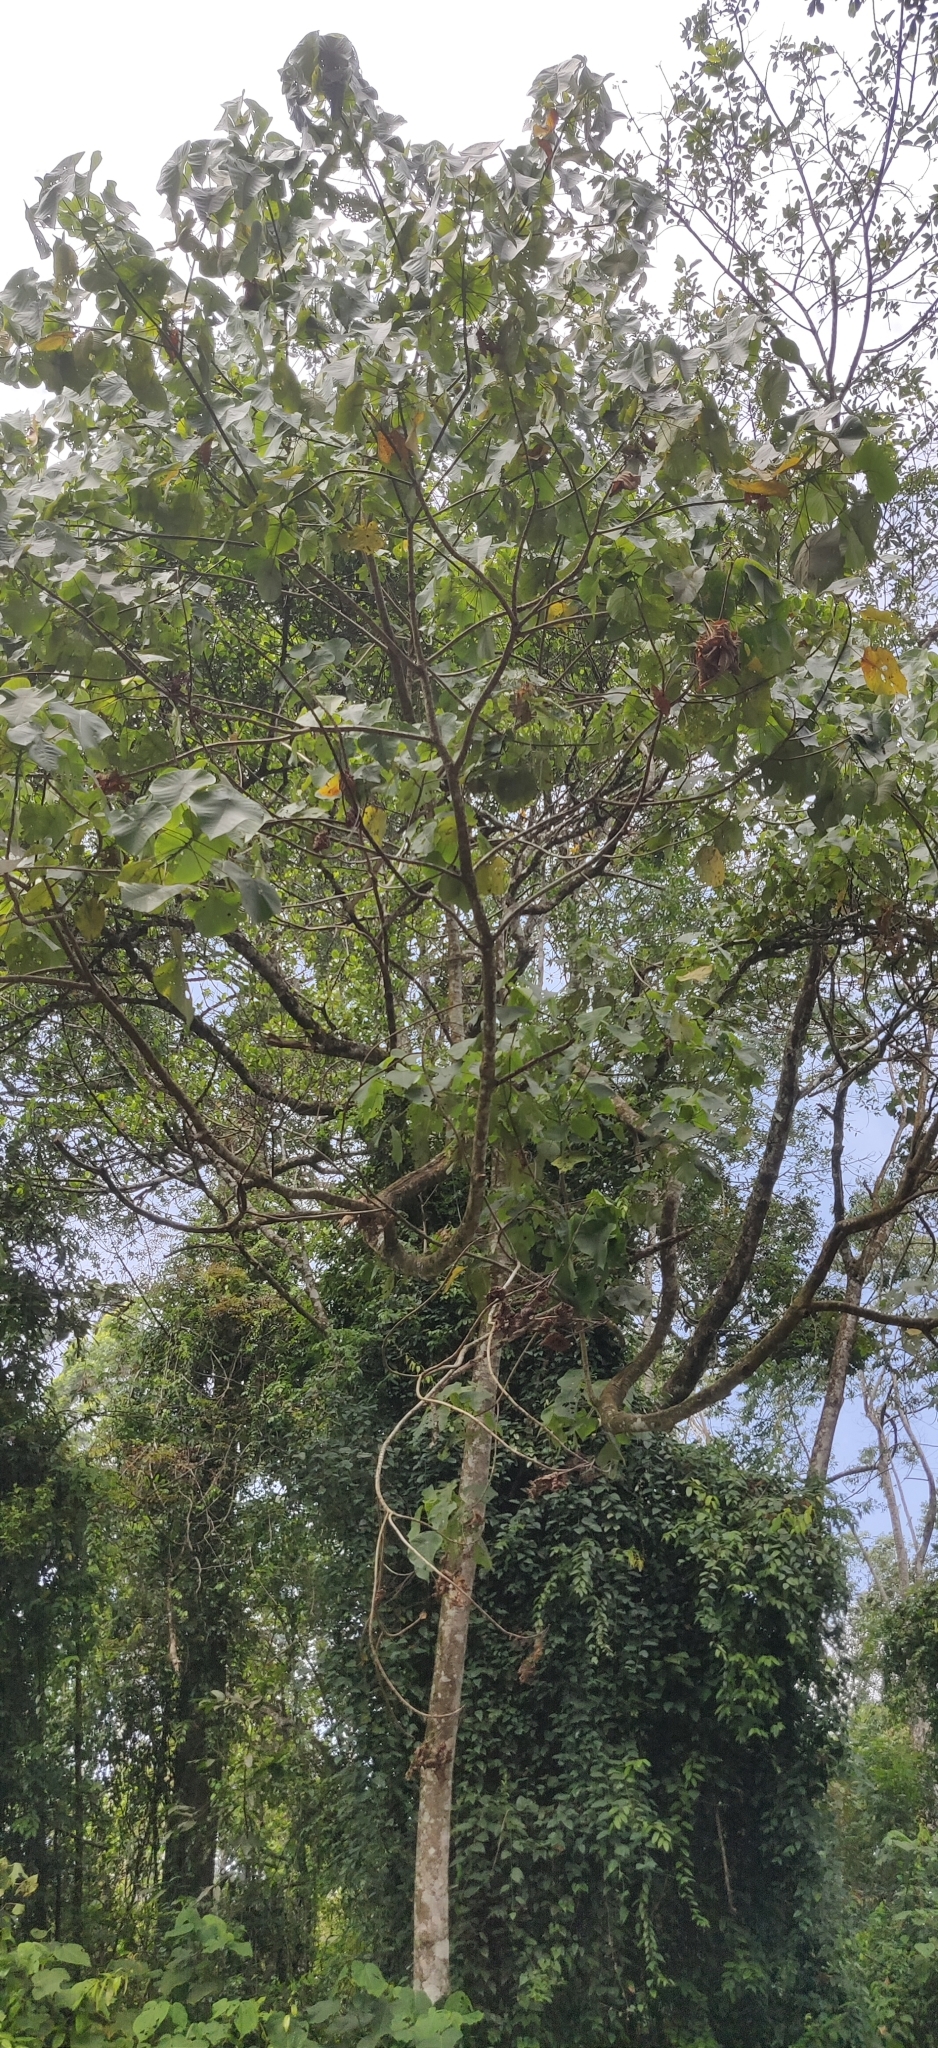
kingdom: Plantae
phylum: Tracheophyta
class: Magnoliopsida
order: Malpighiales
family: Euphorbiaceae
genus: Macaranga
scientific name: Macaranga indica
